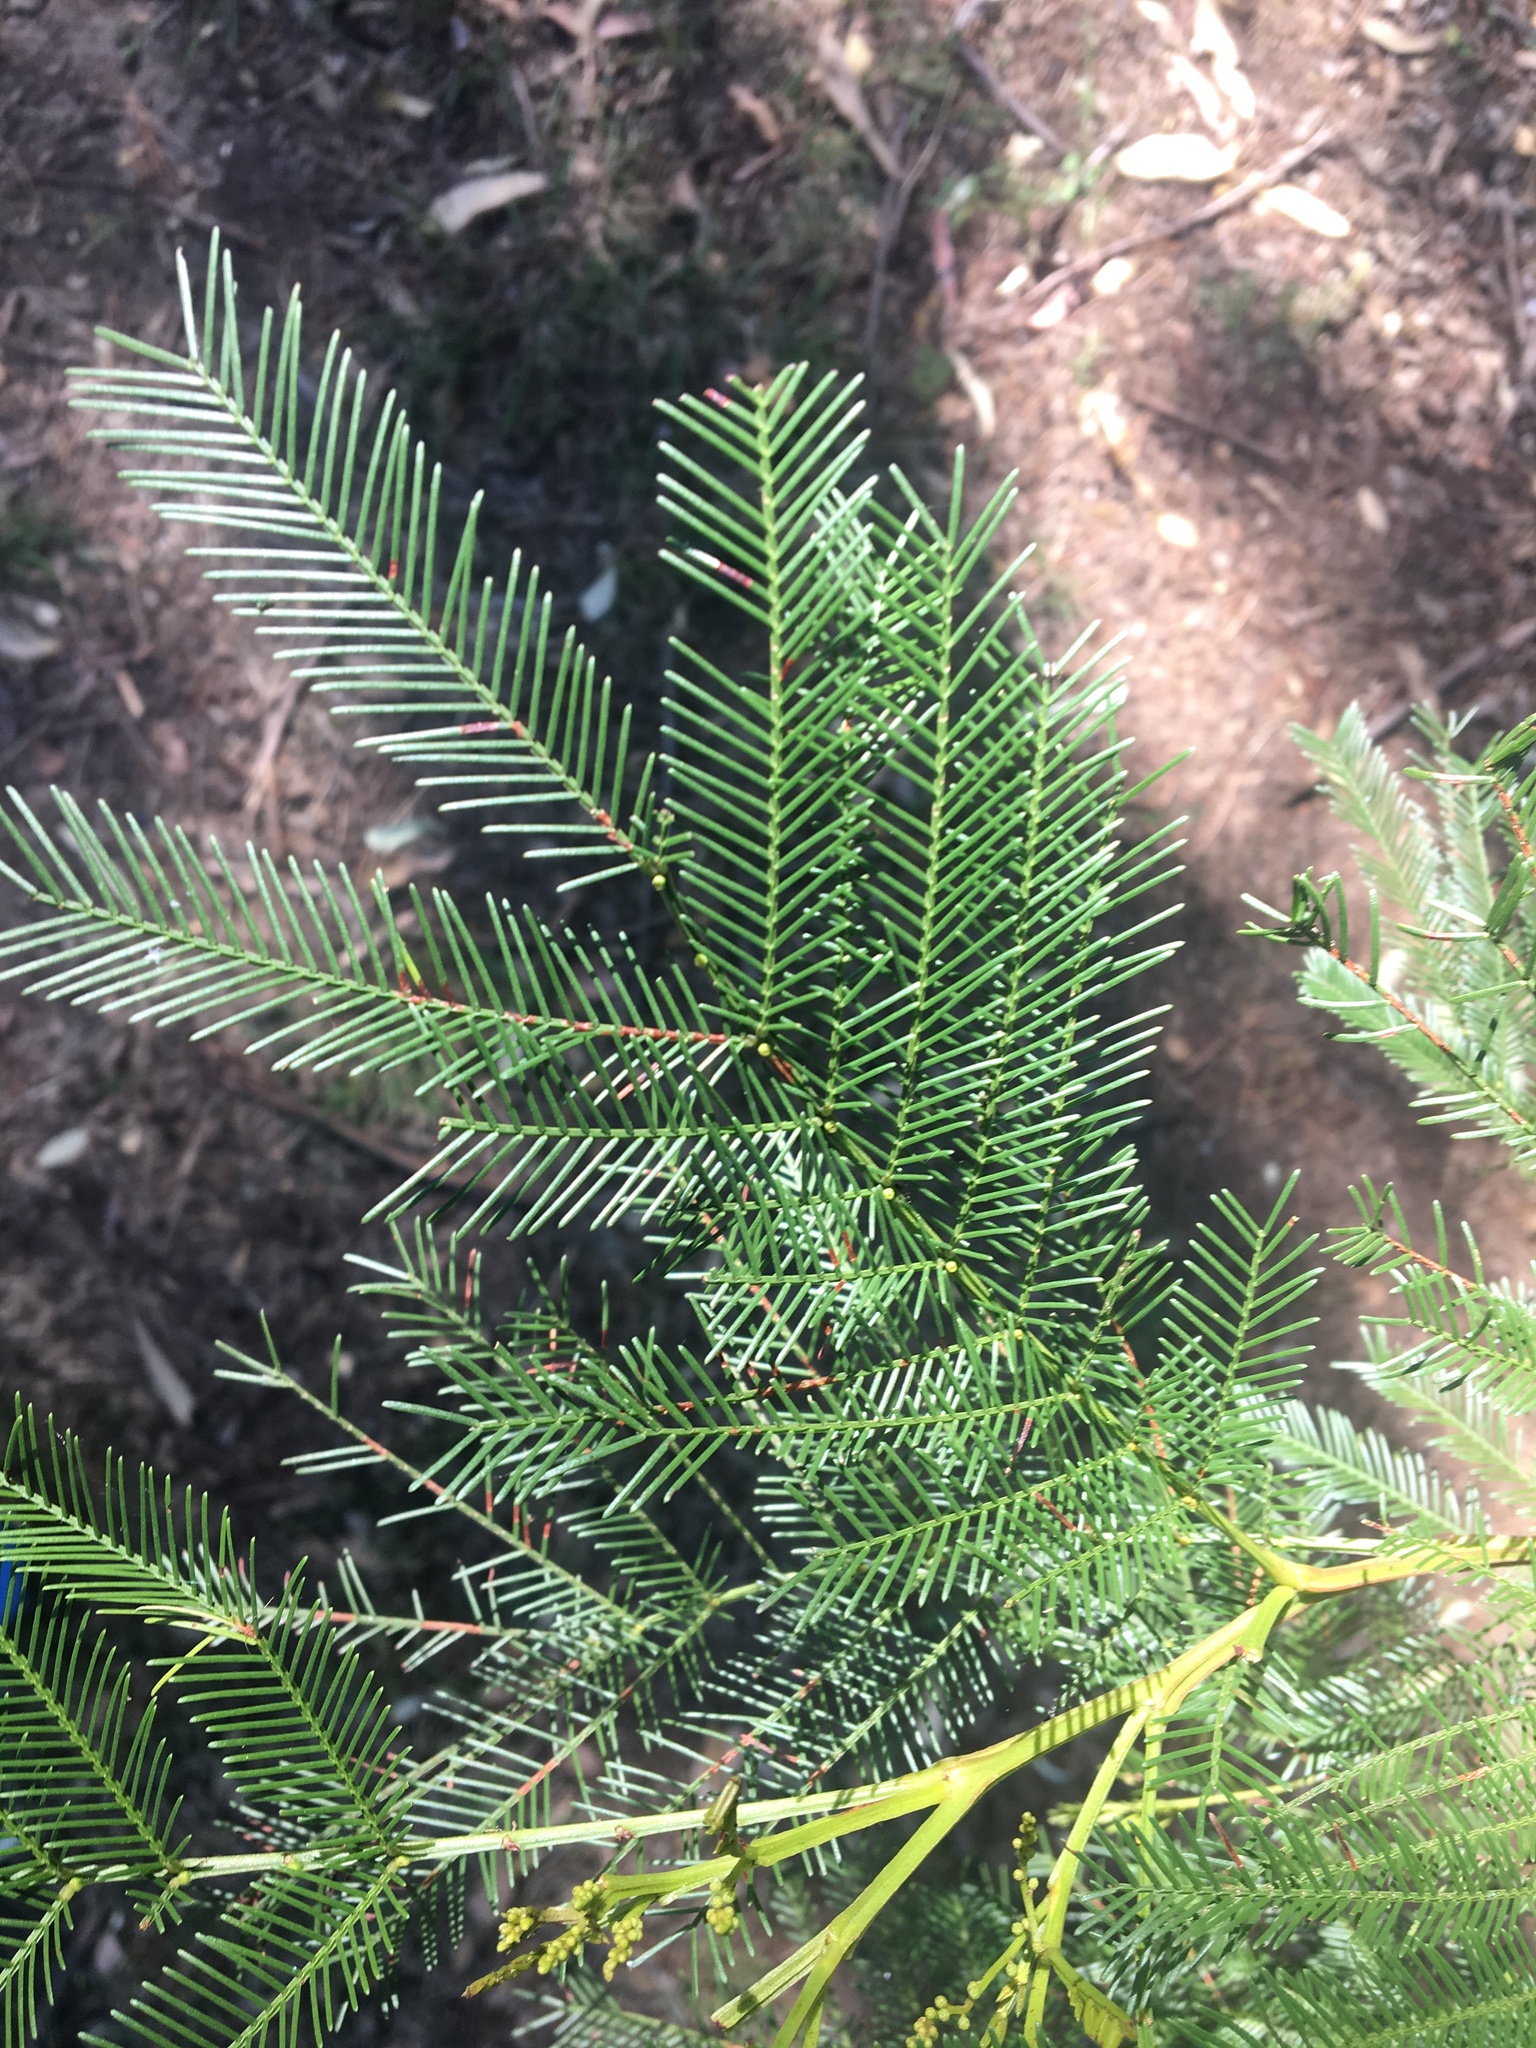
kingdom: Plantae
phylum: Tracheophyta
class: Magnoliopsida
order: Fabales
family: Fabaceae
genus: Acacia
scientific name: Acacia decurrens
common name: Green wattle
